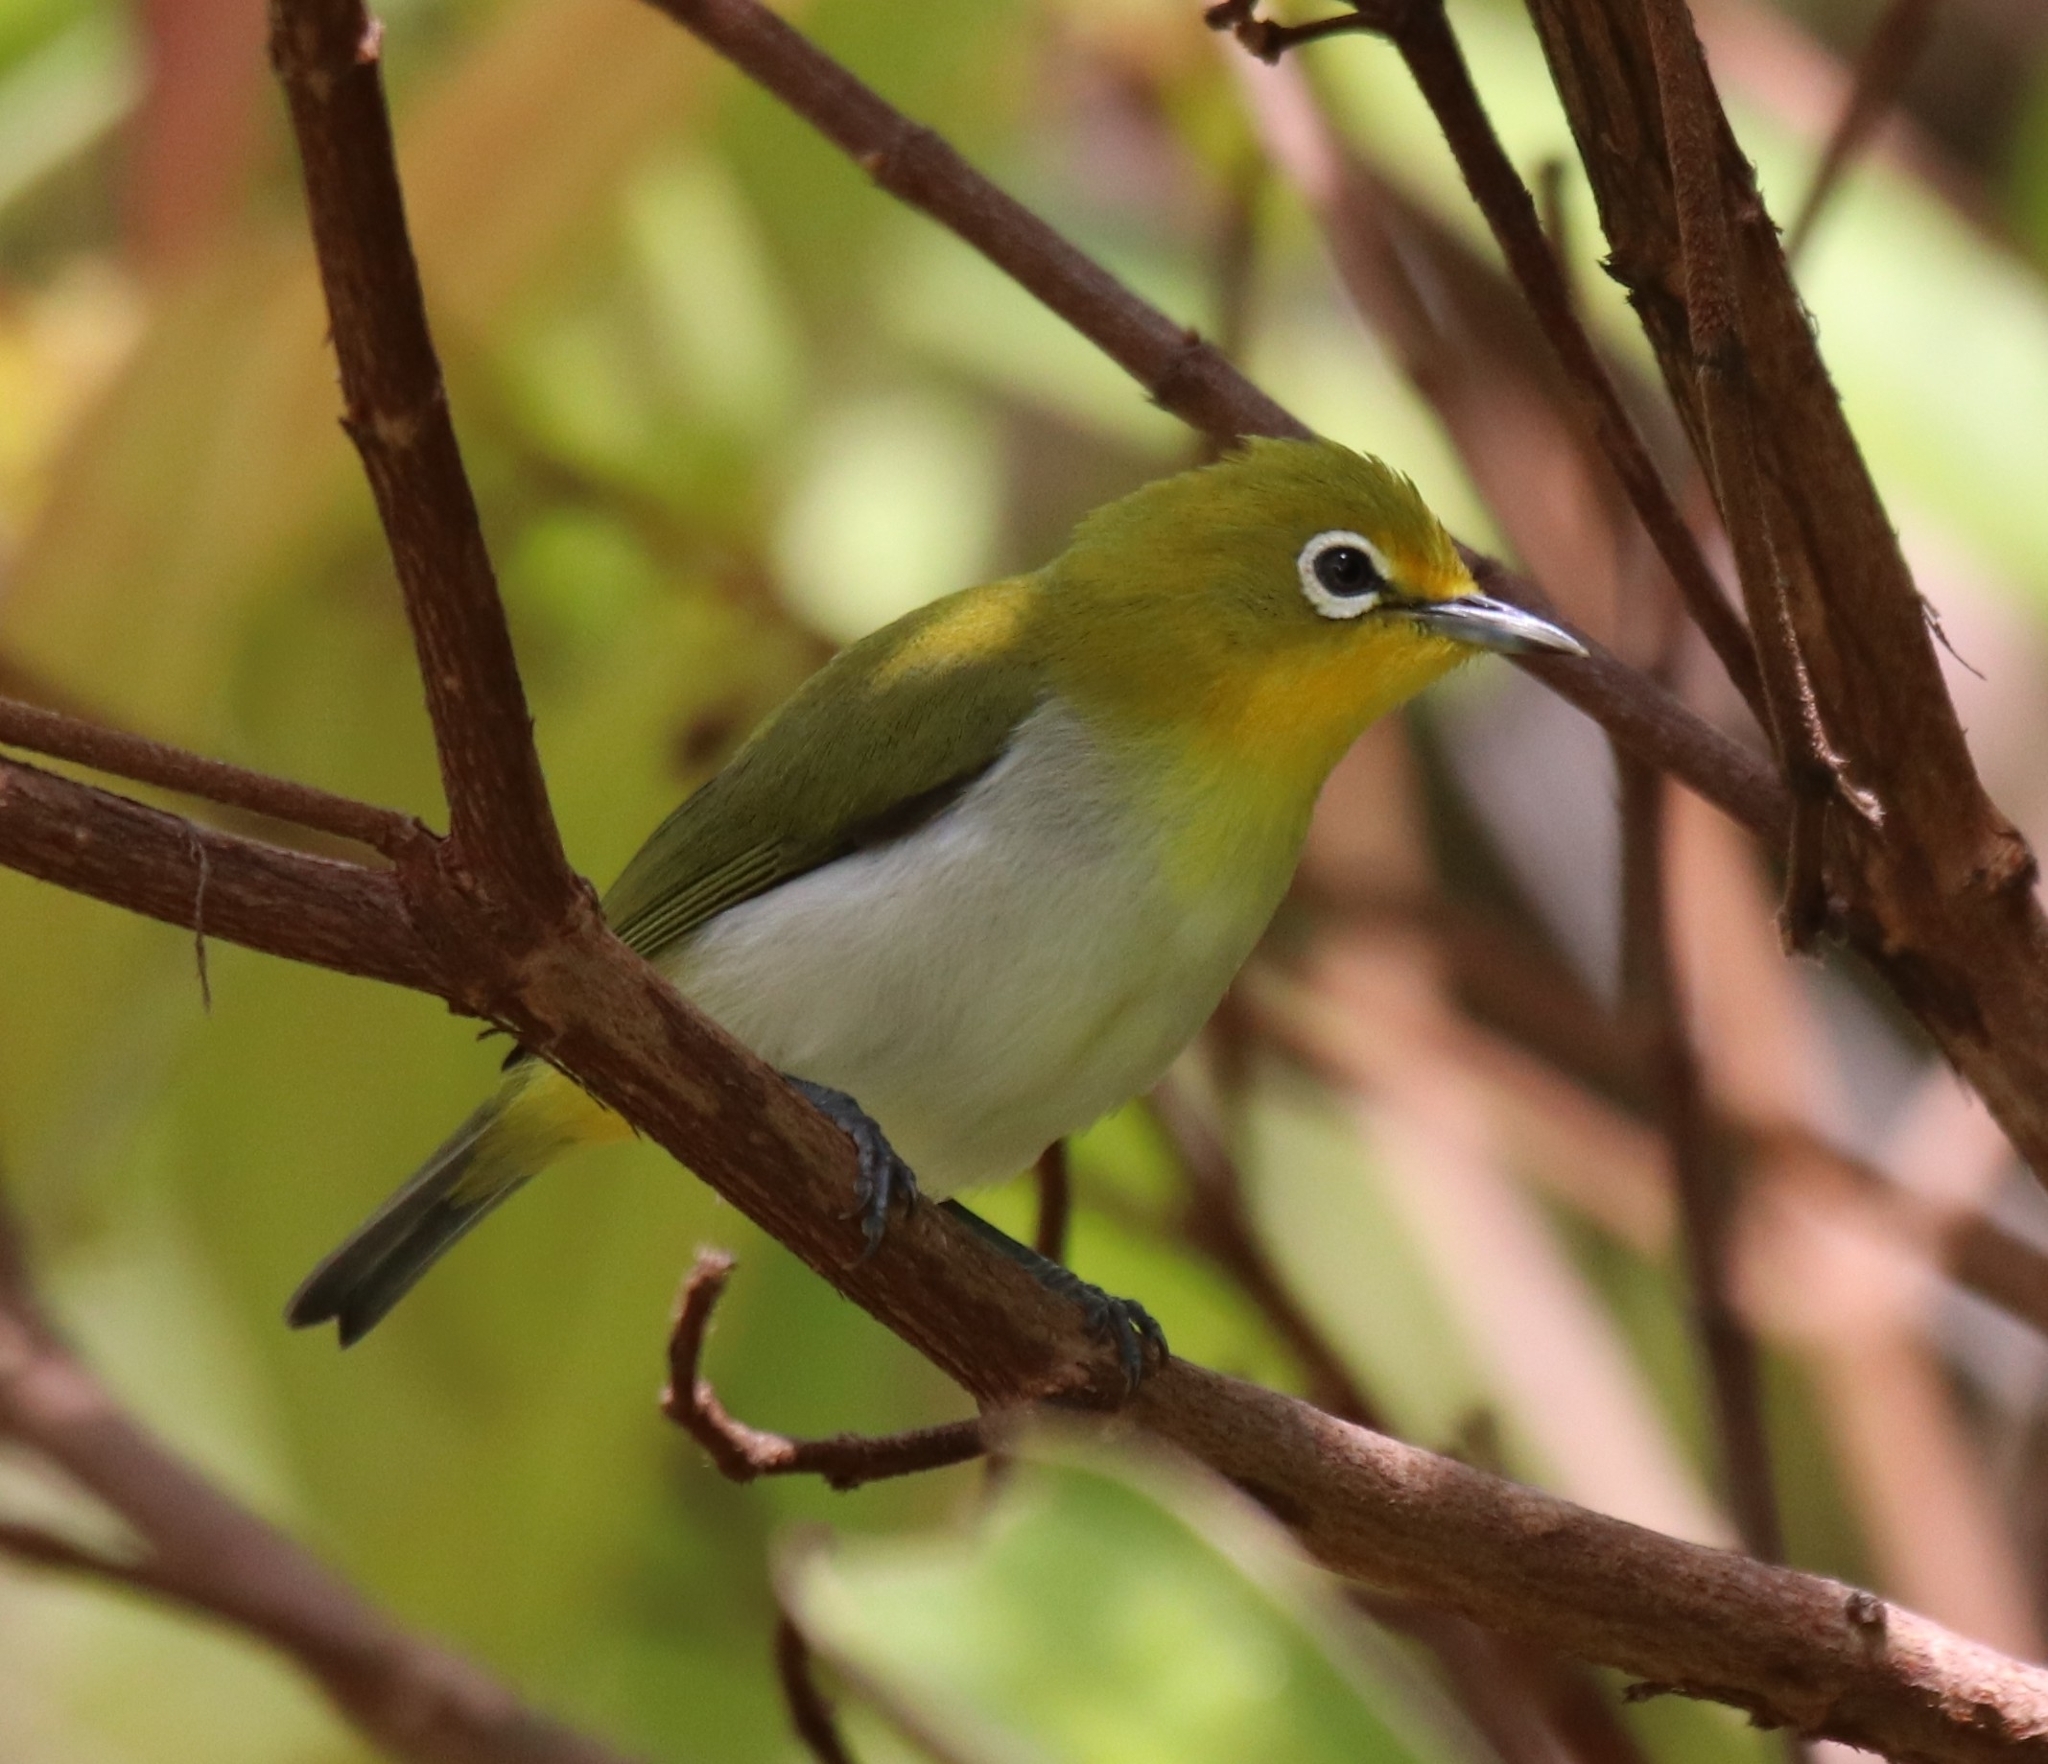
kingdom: Animalia
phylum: Chordata
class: Aves
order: Passeriformes
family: Zosteropidae
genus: Zosterops
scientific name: Zosterops japonicus
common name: Japanese white-eye
